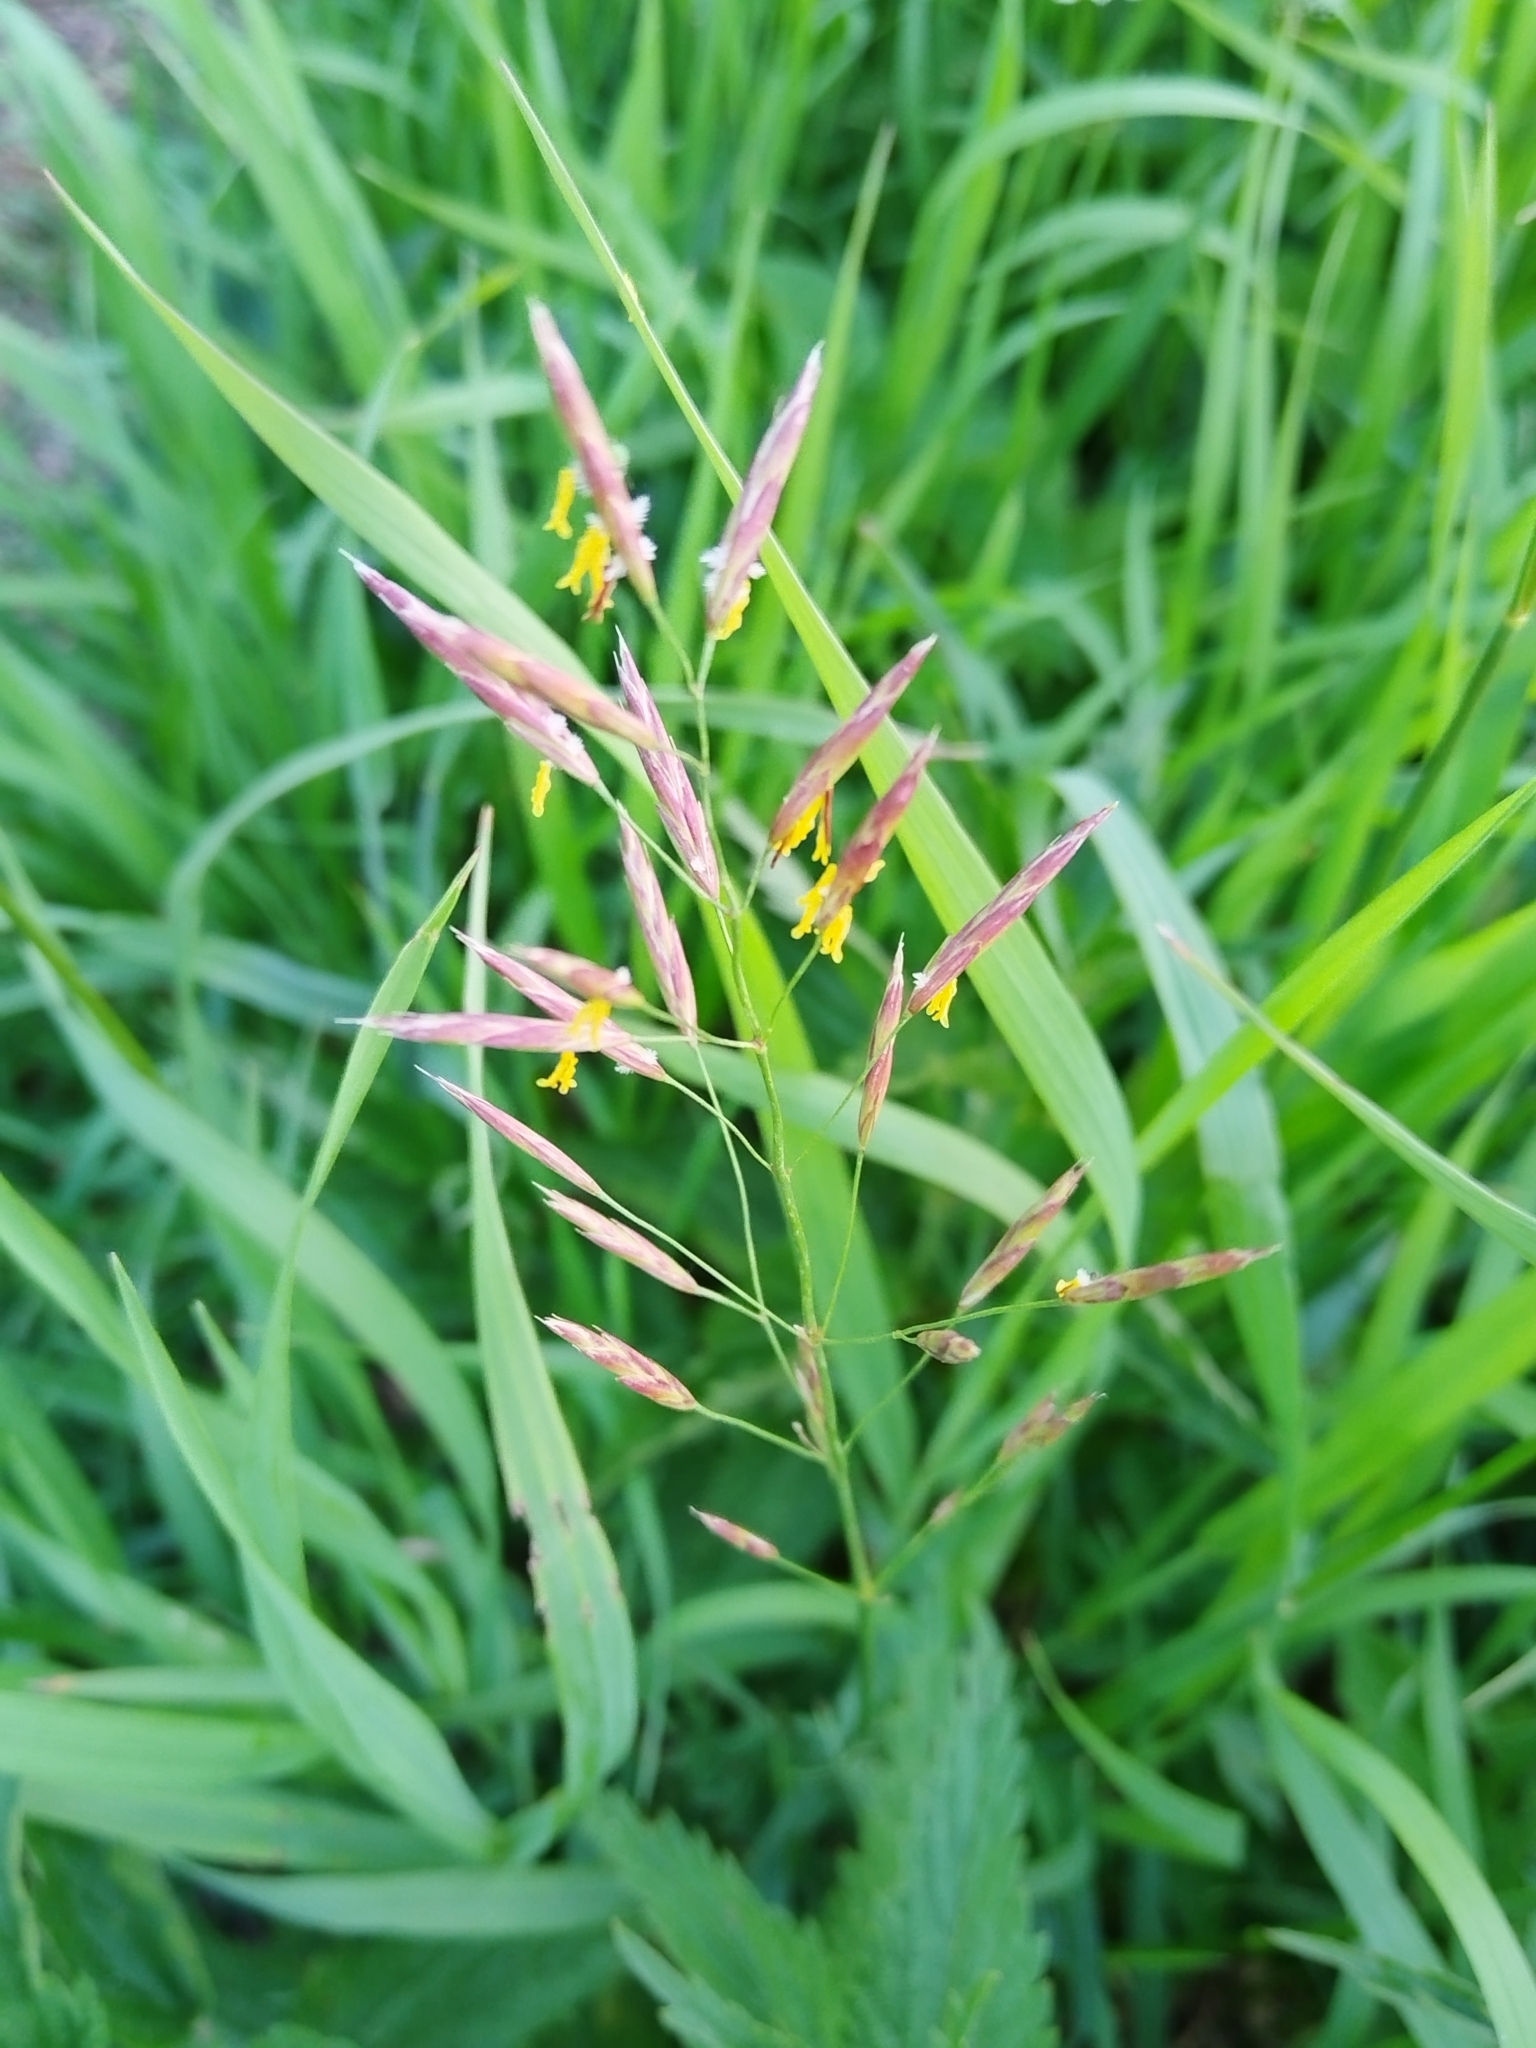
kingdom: Plantae
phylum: Tracheophyta
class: Liliopsida
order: Poales
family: Poaceae
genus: Bromus
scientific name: Bromus inermis
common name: Smooth brome
